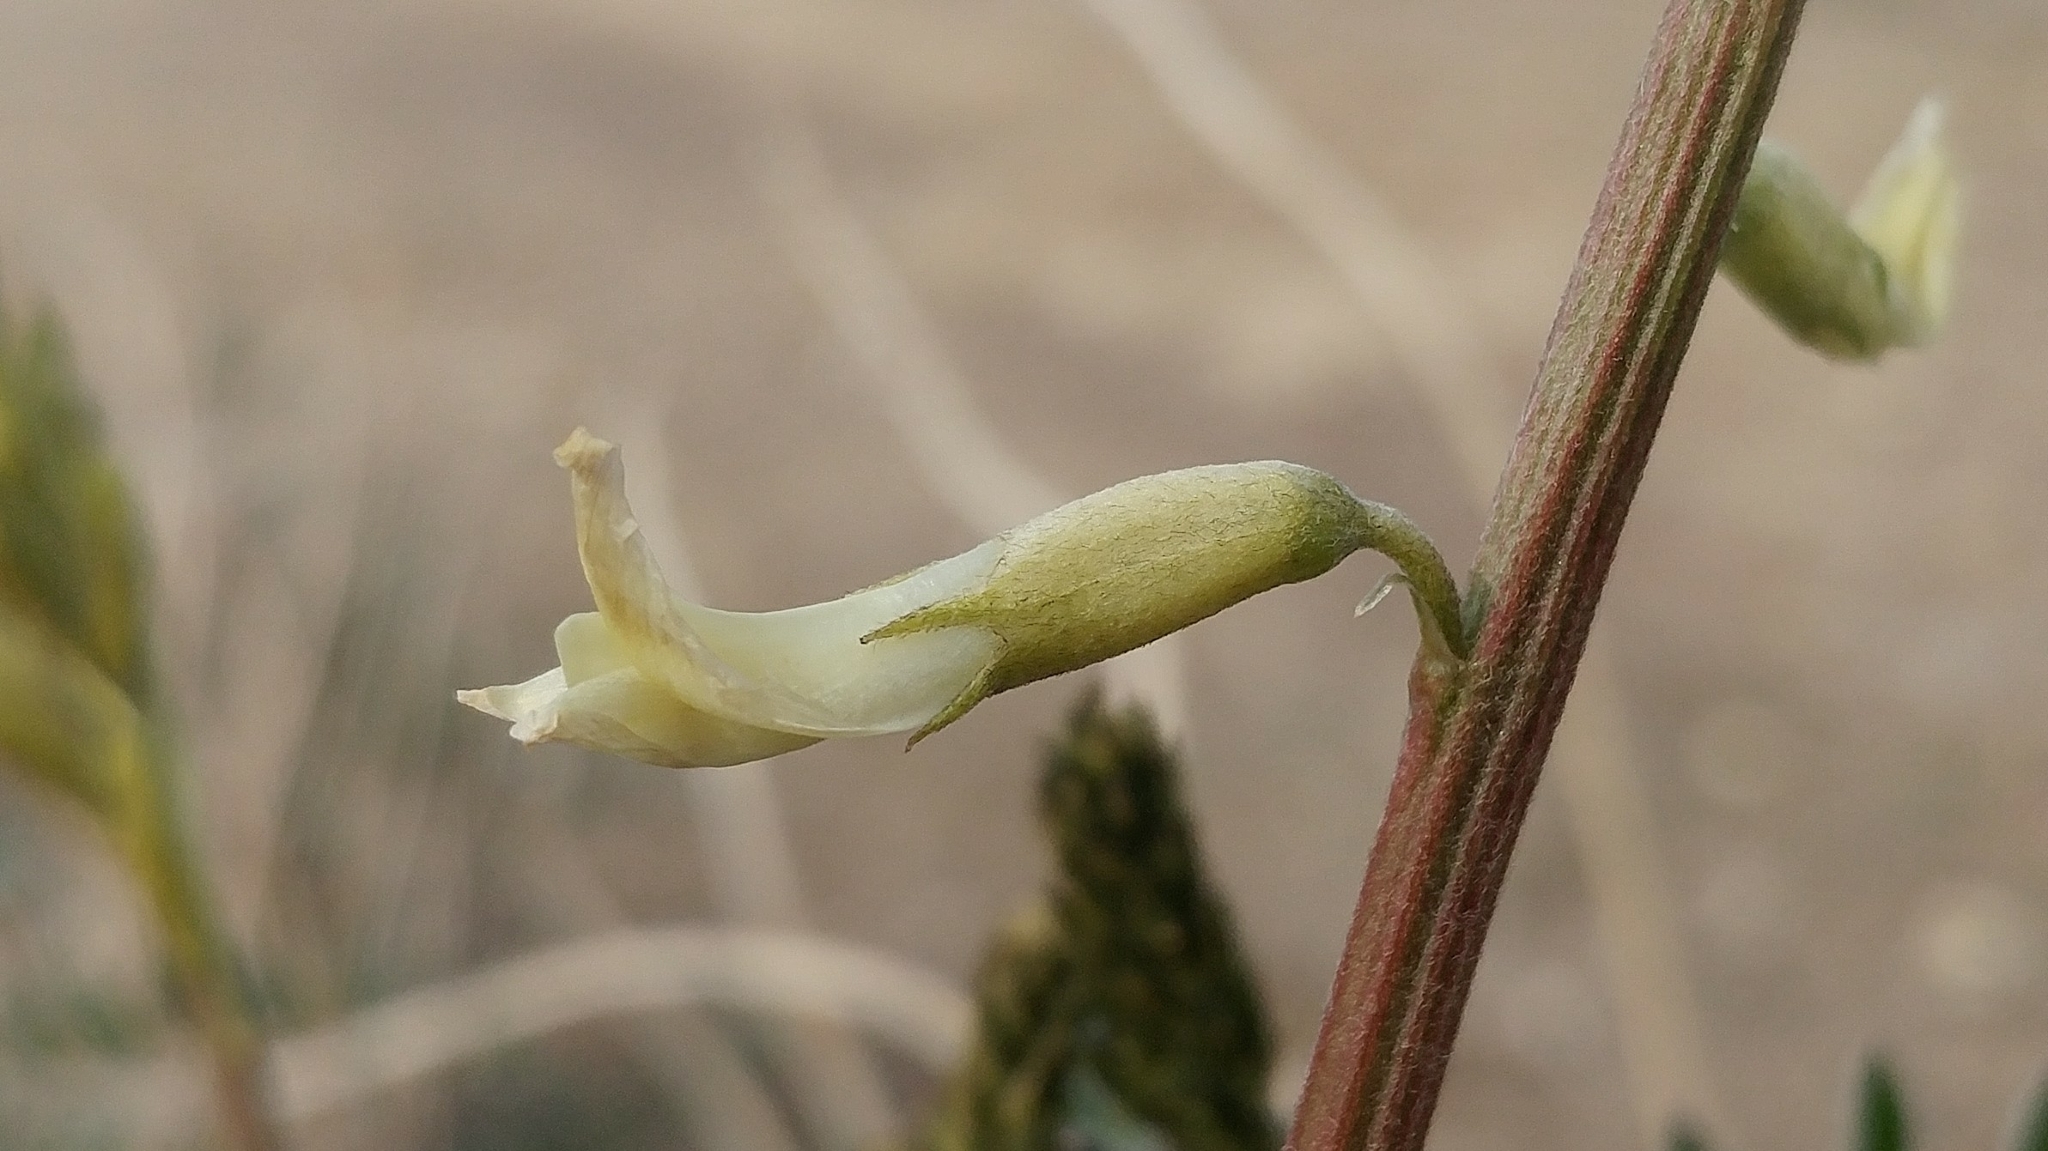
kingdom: Plantae
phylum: Tracheophyta
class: Magnoliopsida
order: Fabales
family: Fabaceae
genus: Astragalus
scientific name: Astragalus oxyphysus
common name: Stanislaus milk-vetch
